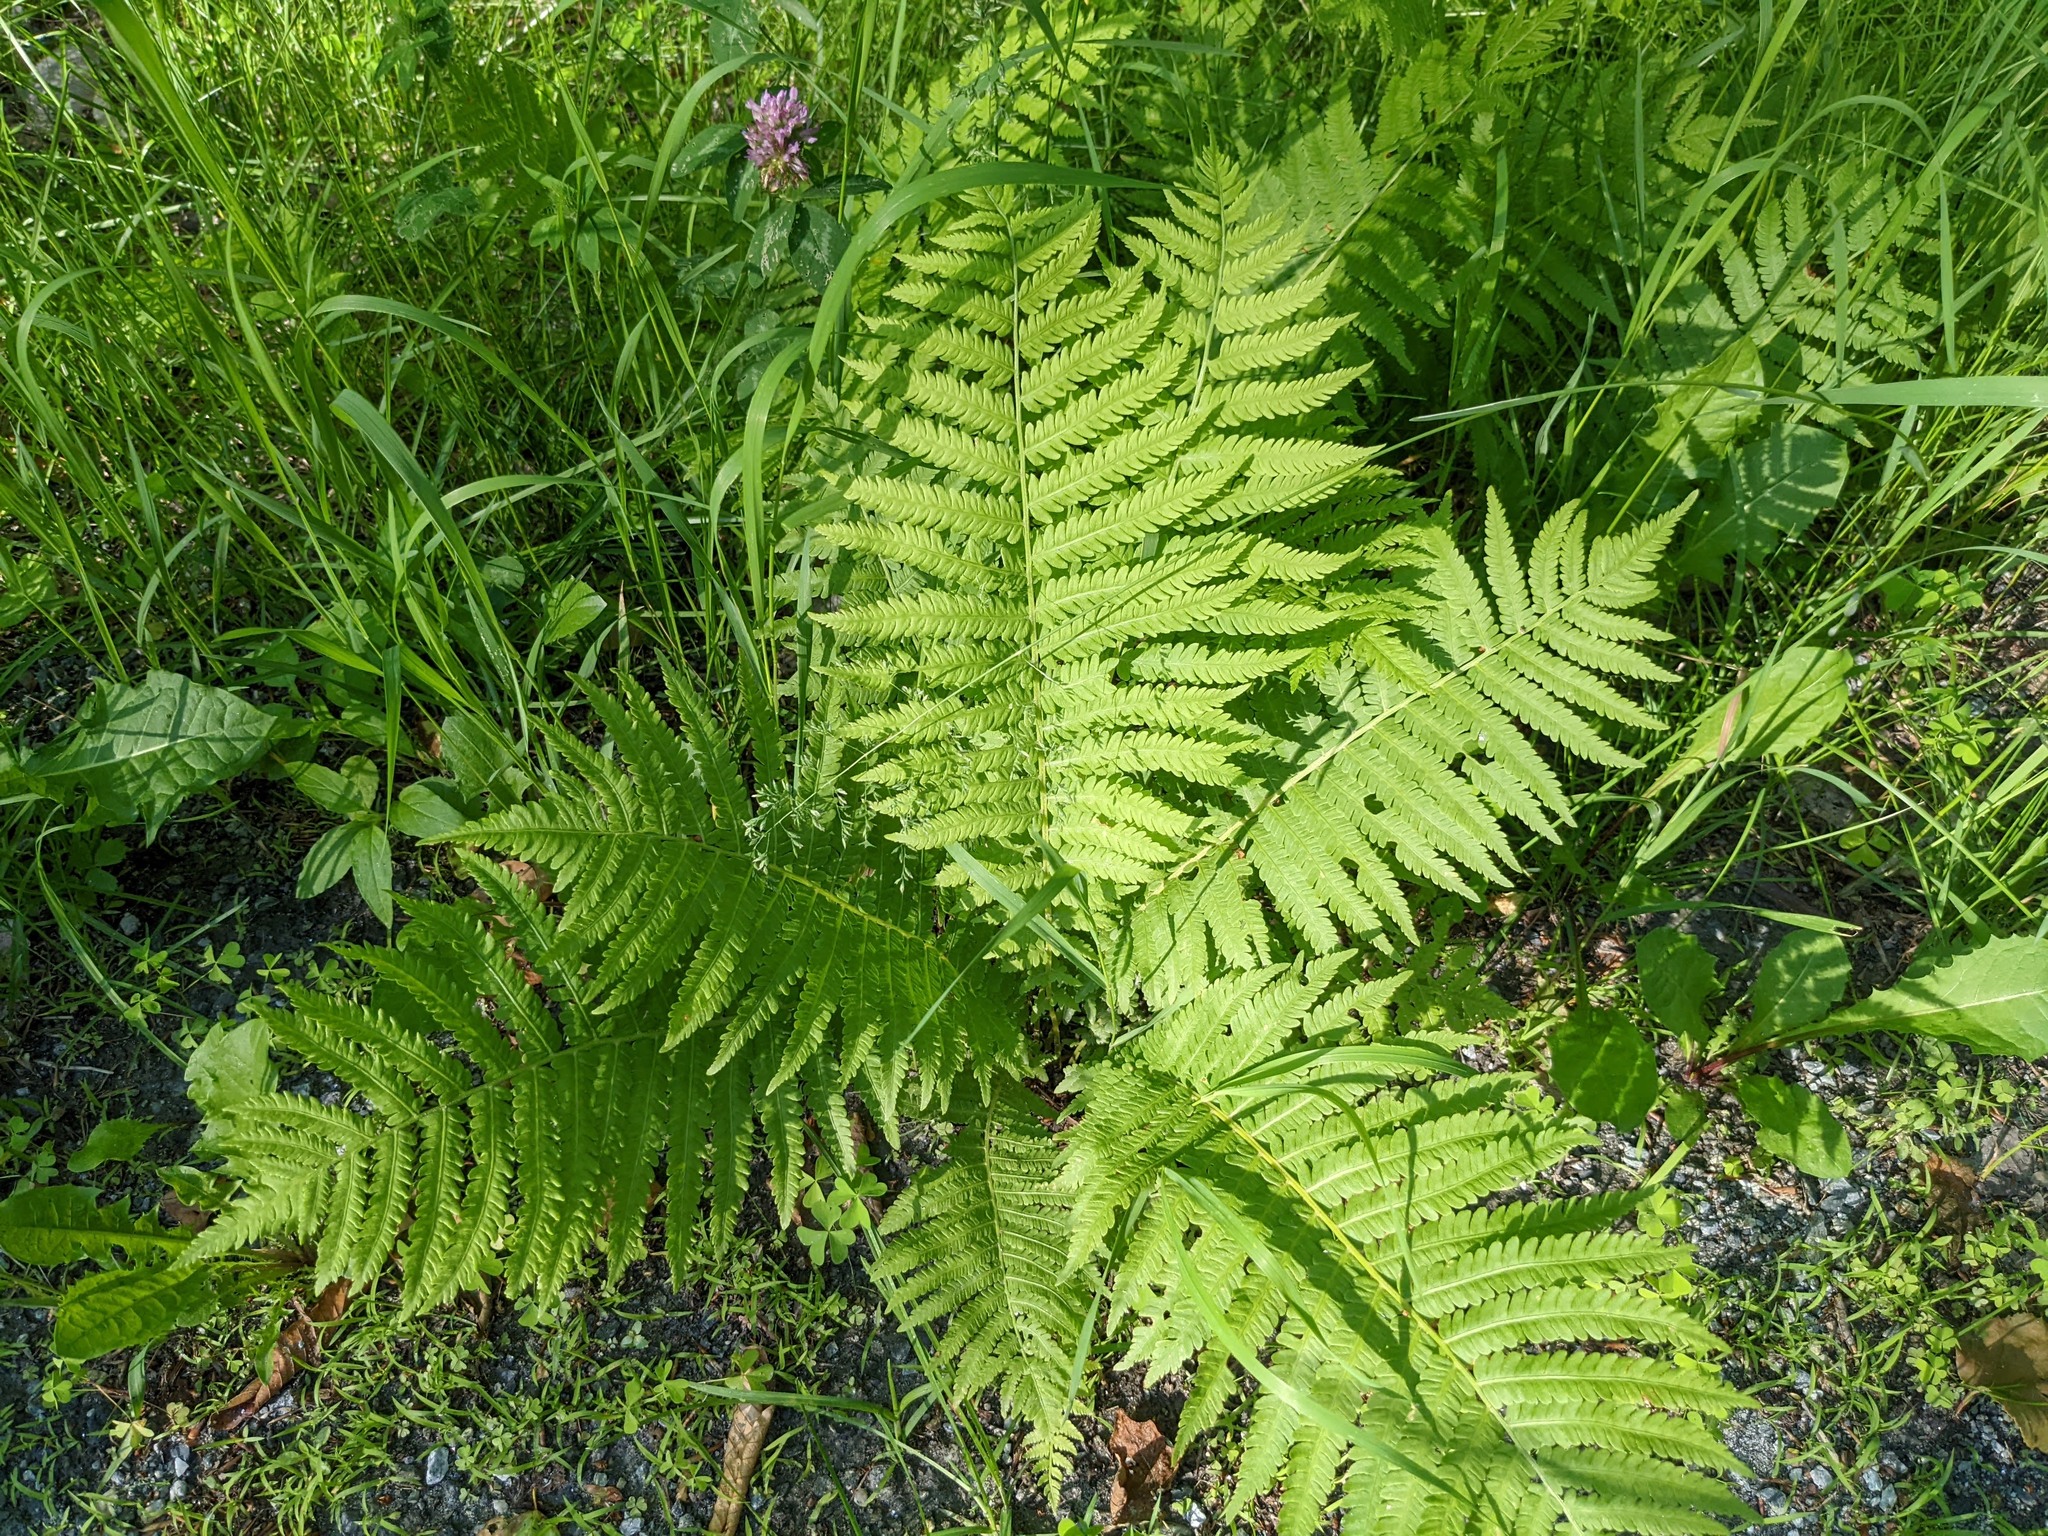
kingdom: Plantae
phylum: Tracheophyta
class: Polypodiopsida
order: Polypodiales
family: Onocleaceae
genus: Matteuccia
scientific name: Matteuccia struthiopteris
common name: Ostrich fern
